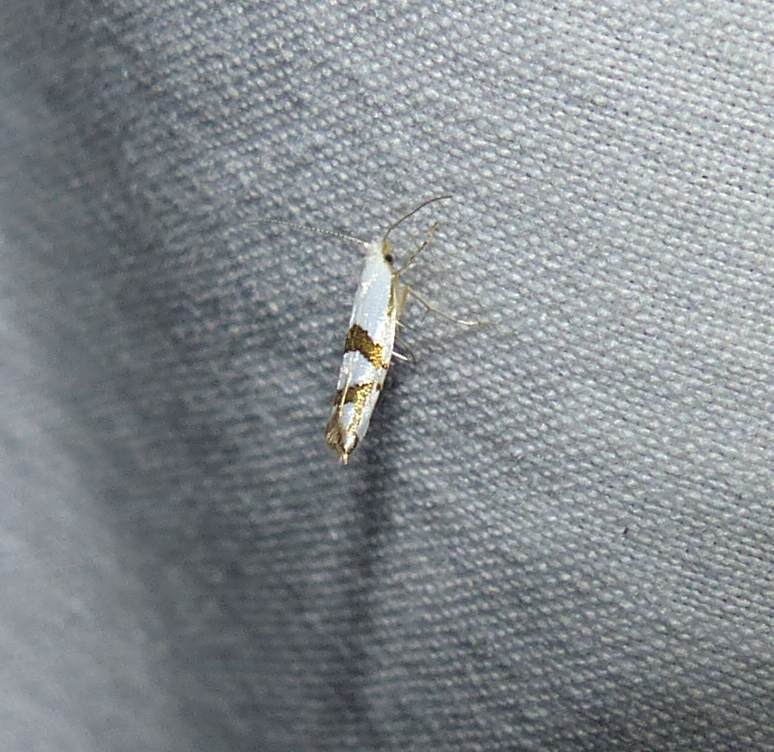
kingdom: Animalia
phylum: Arthropoda
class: Insecta
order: Lepidoptera
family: Argyresthiidae
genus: Argyresthia
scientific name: Argyresthia oreasella
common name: Cherry shoot borer moth
